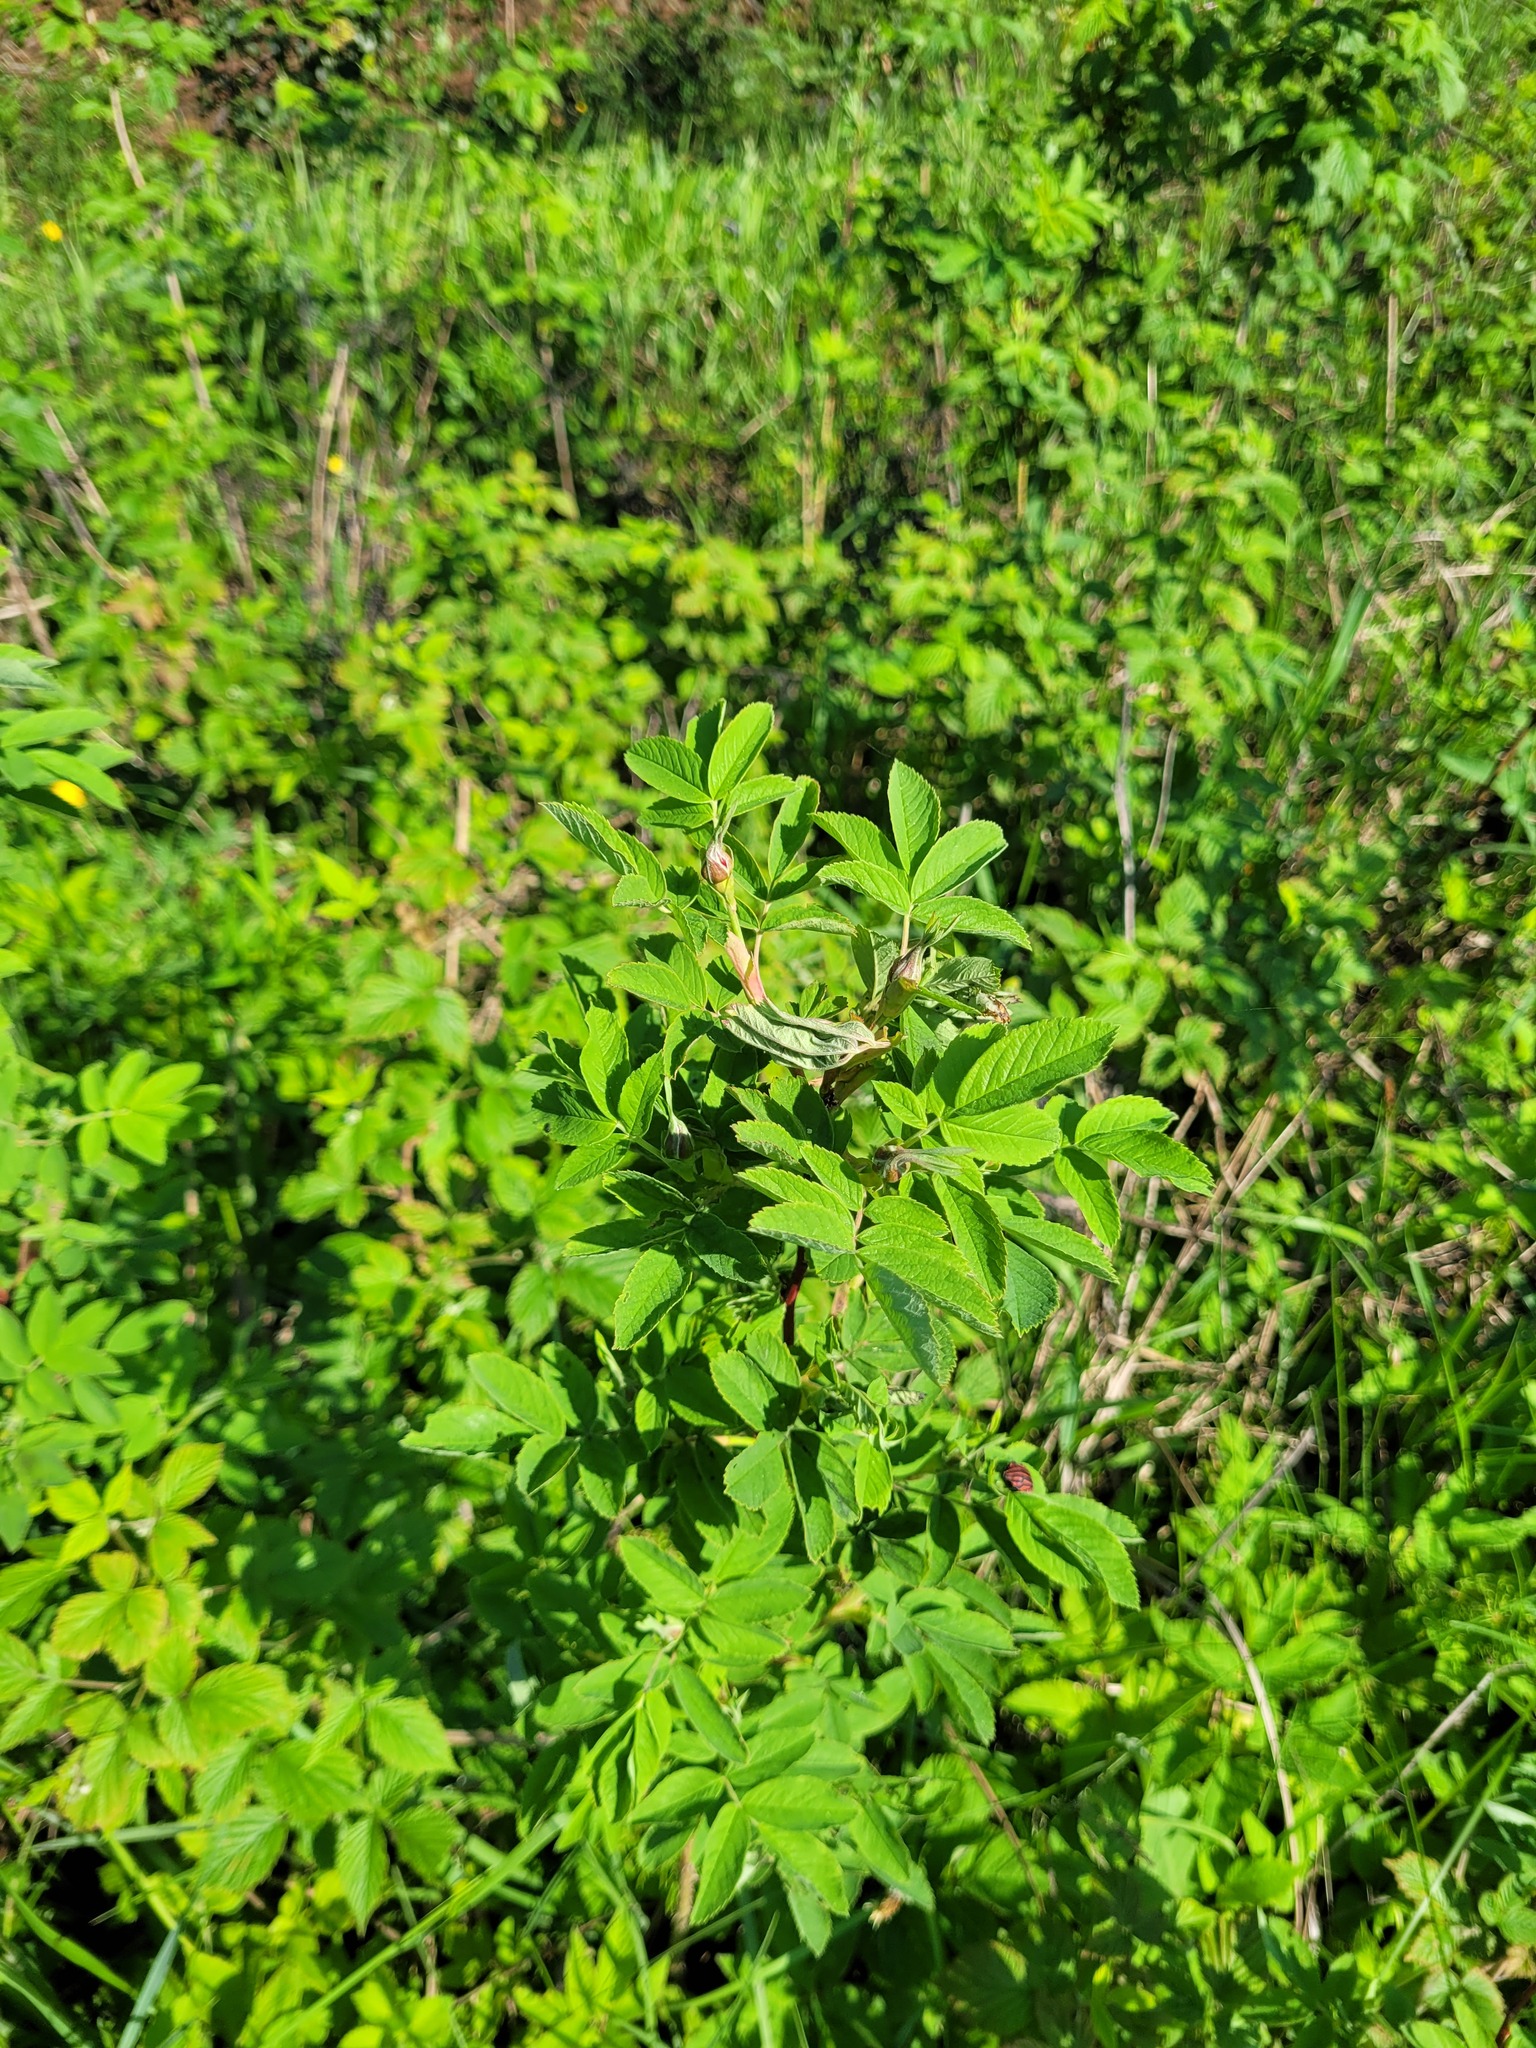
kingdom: Plantae
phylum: Tracheophyta
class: Magnoliopsida
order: Rosales
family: Rosaceae
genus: Rosa
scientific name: Rosa majalis
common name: Cinnamon rose
